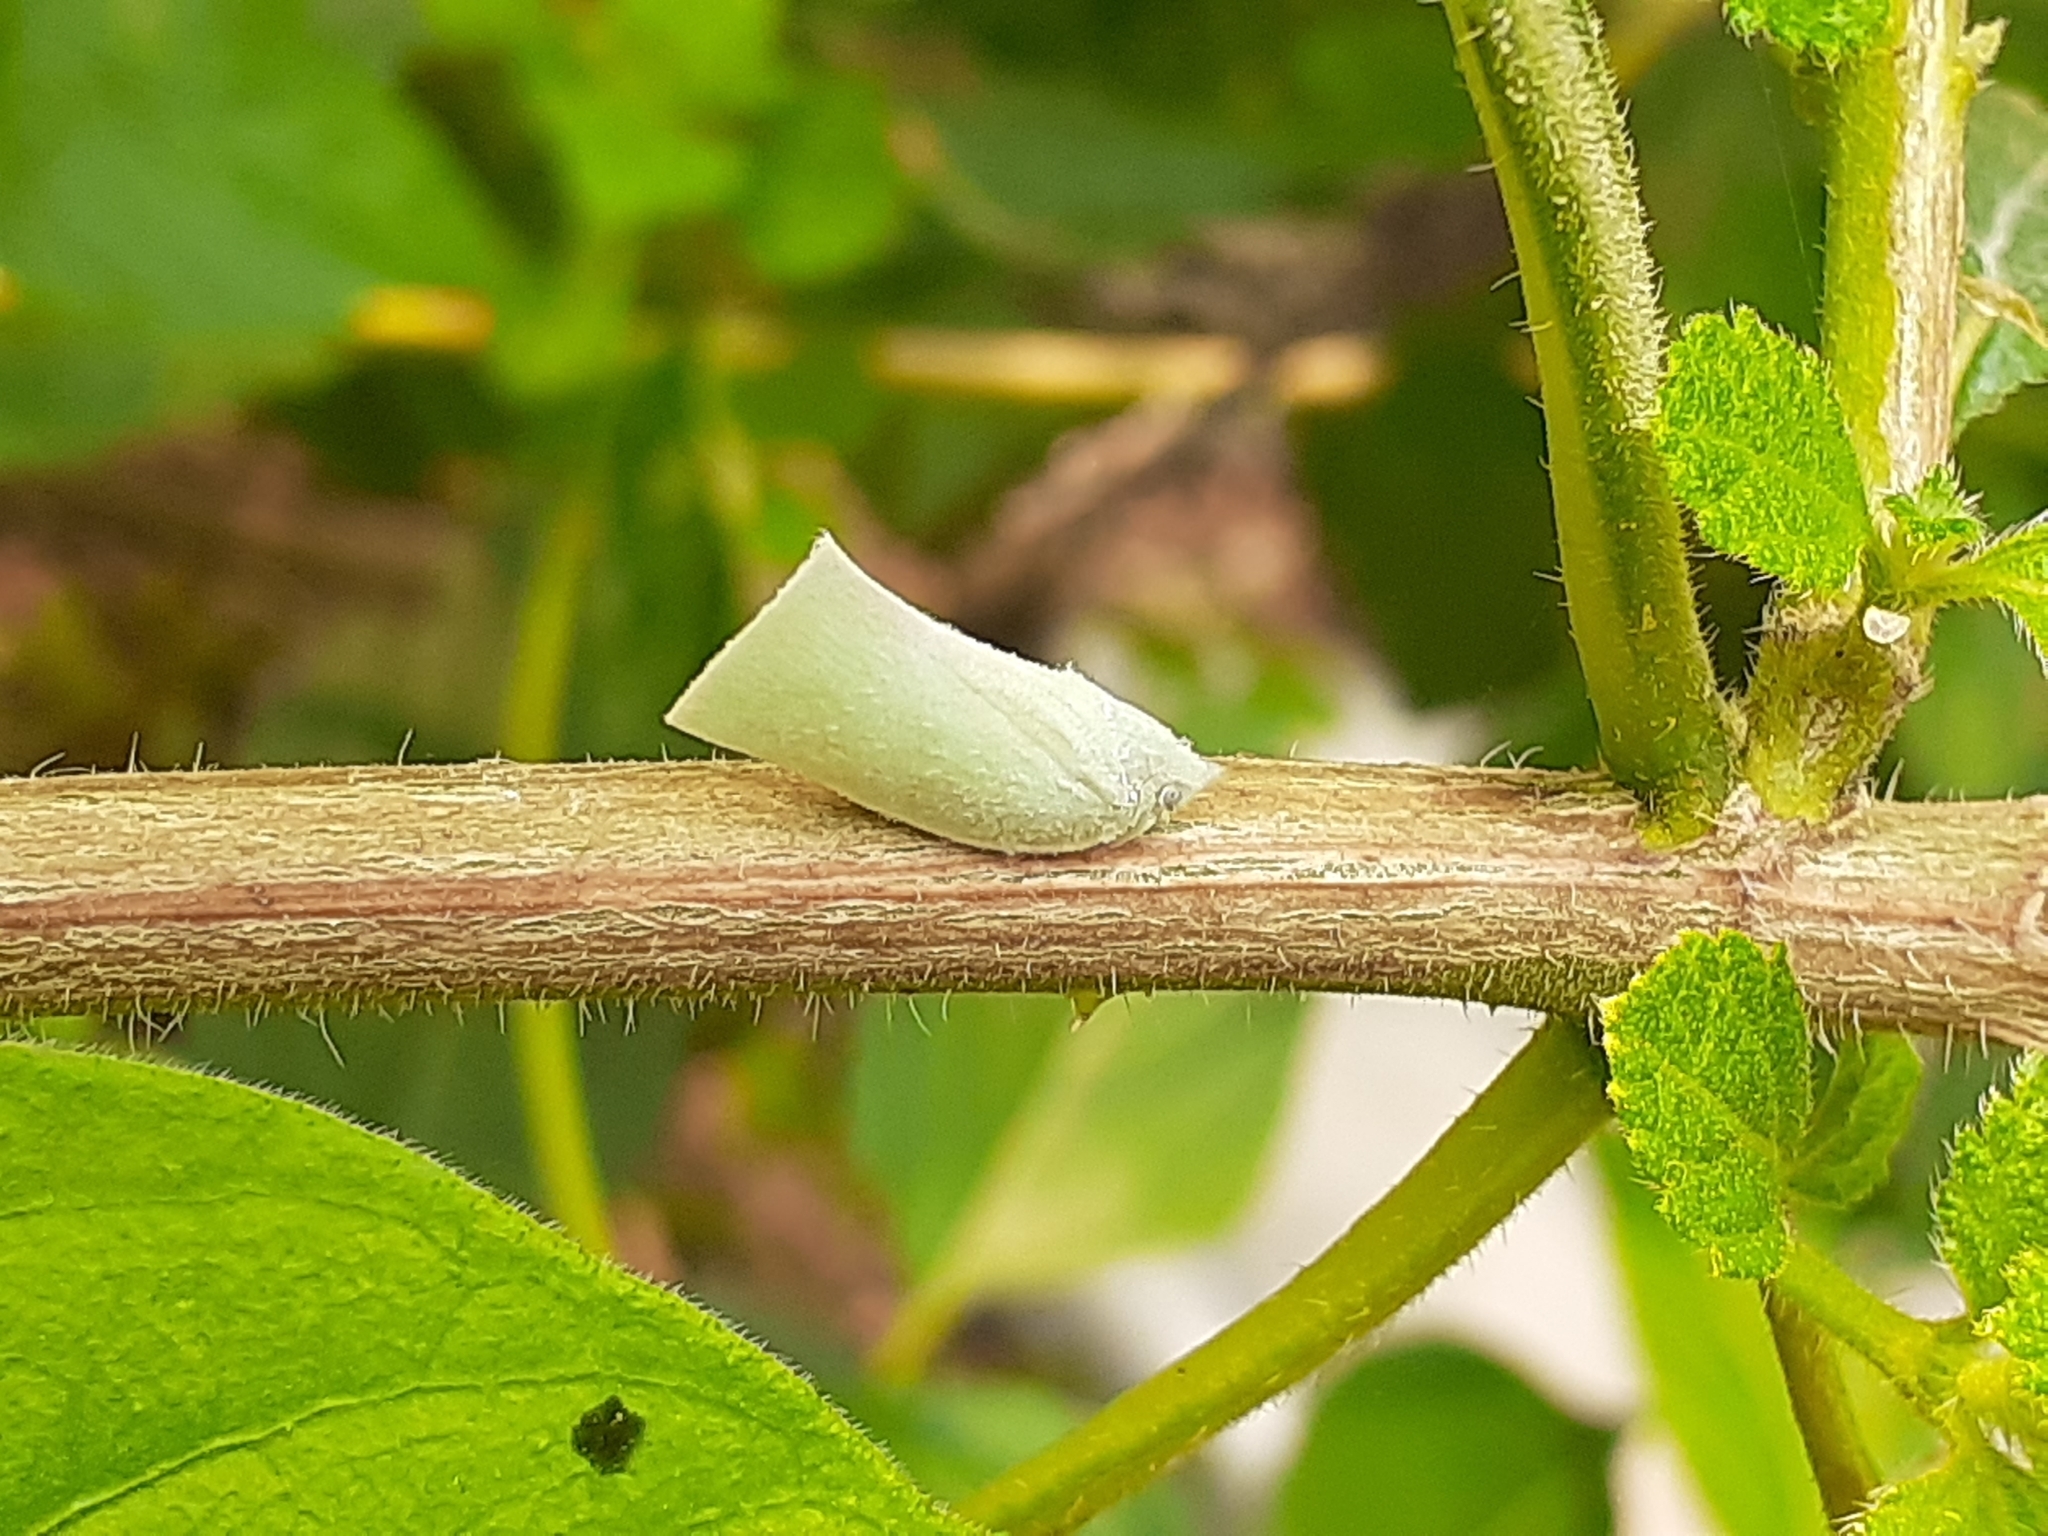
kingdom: Animalia
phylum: Arthropoda
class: Insecta
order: Hemiptera
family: Flatidae
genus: Phylliana
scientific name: Phylliana alba
